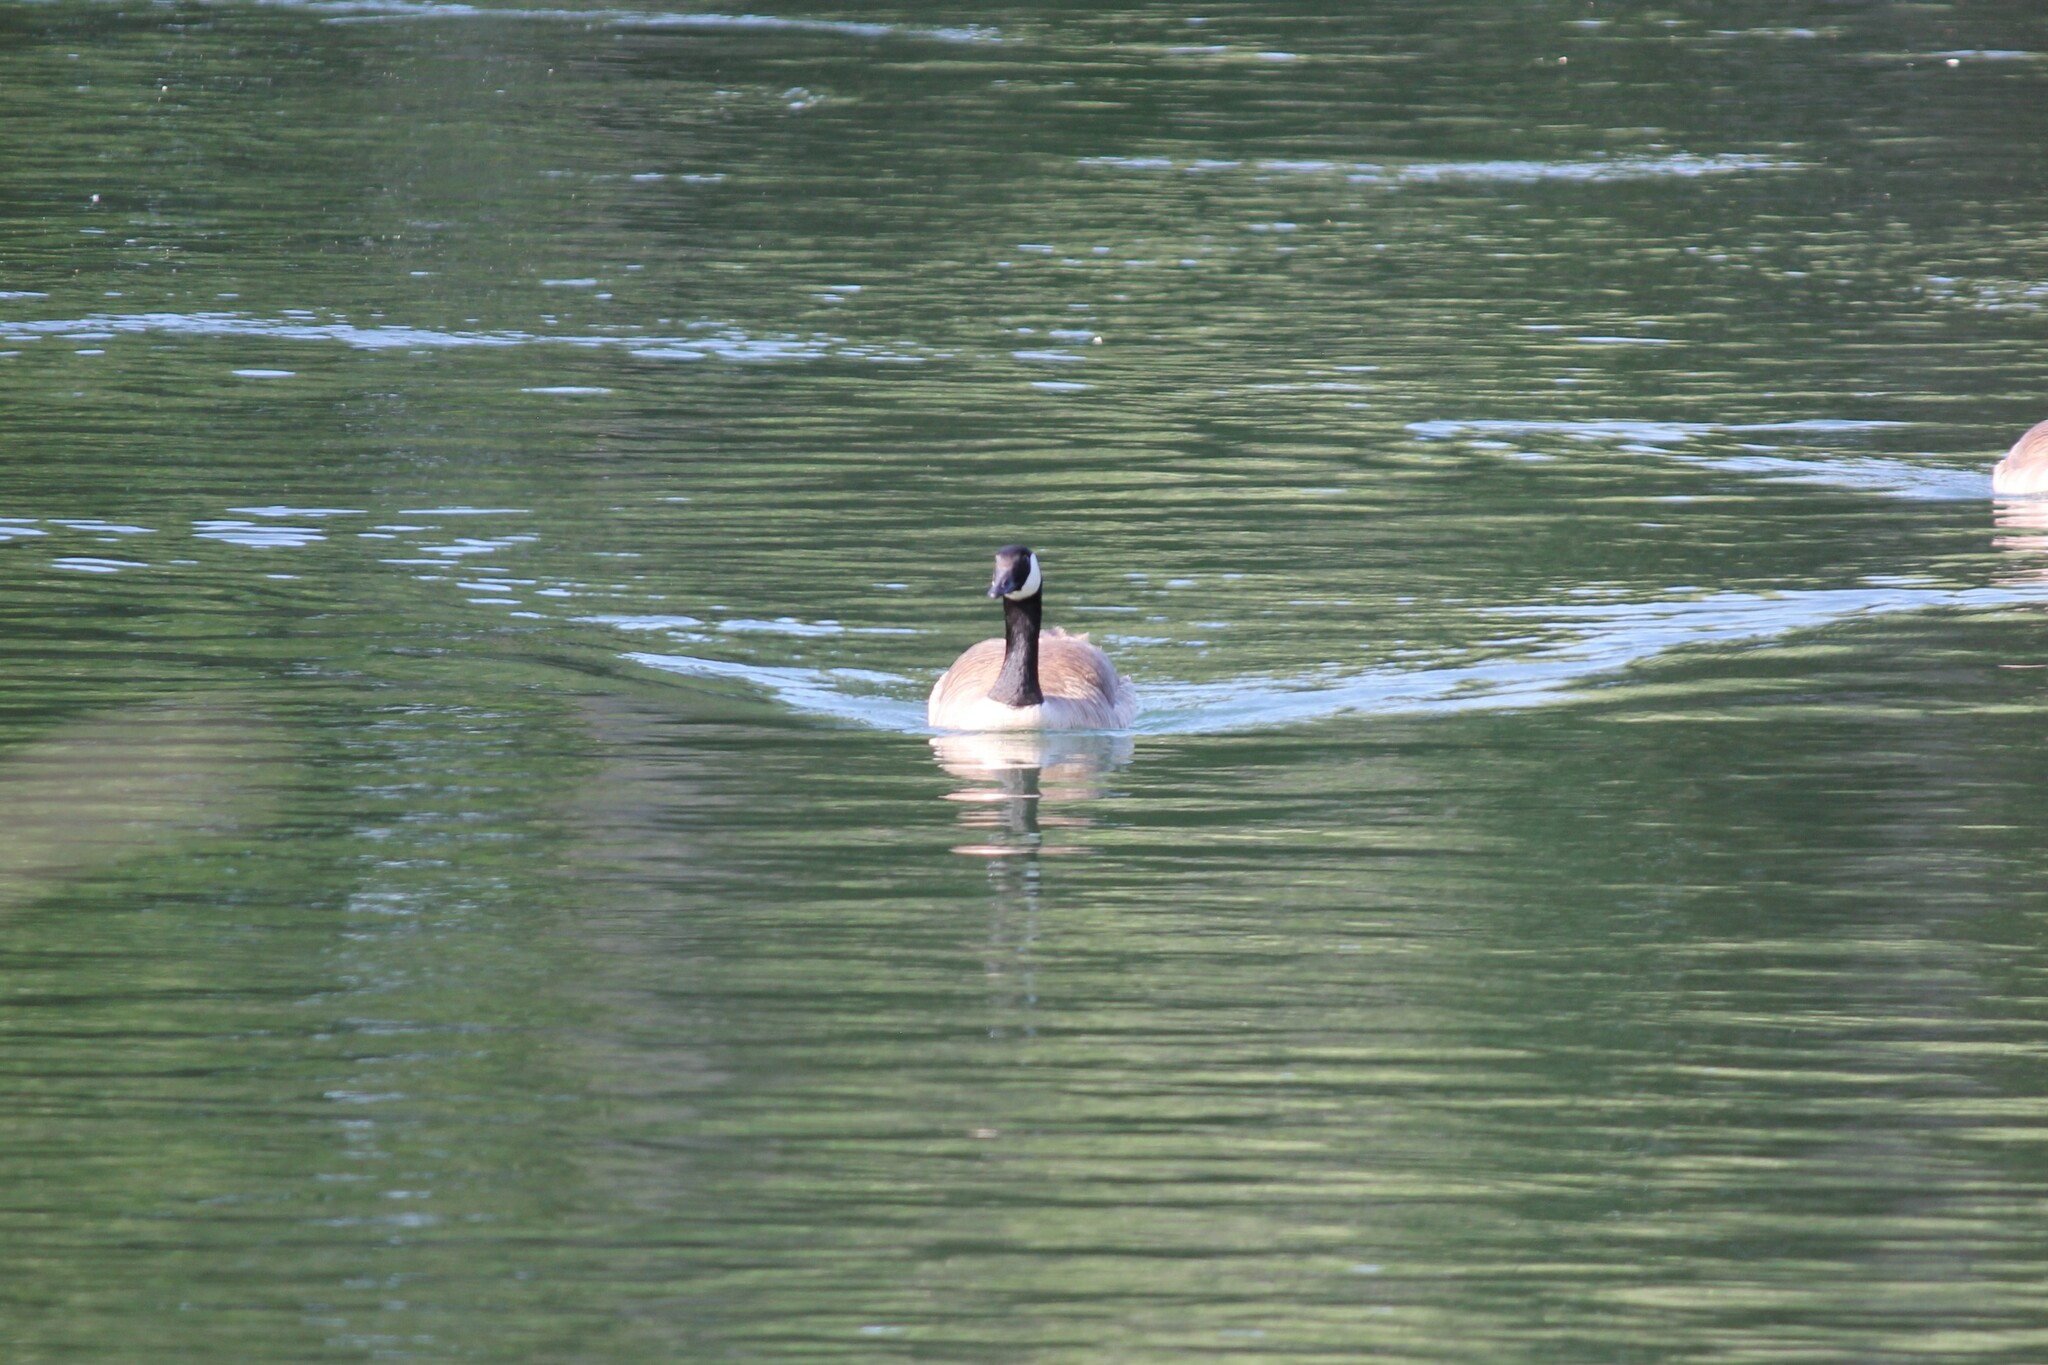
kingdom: Animalia
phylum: Chordata
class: Aves
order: Anseriformes
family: Anatidae
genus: Branta
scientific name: Branta canadensis
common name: Canada goose
